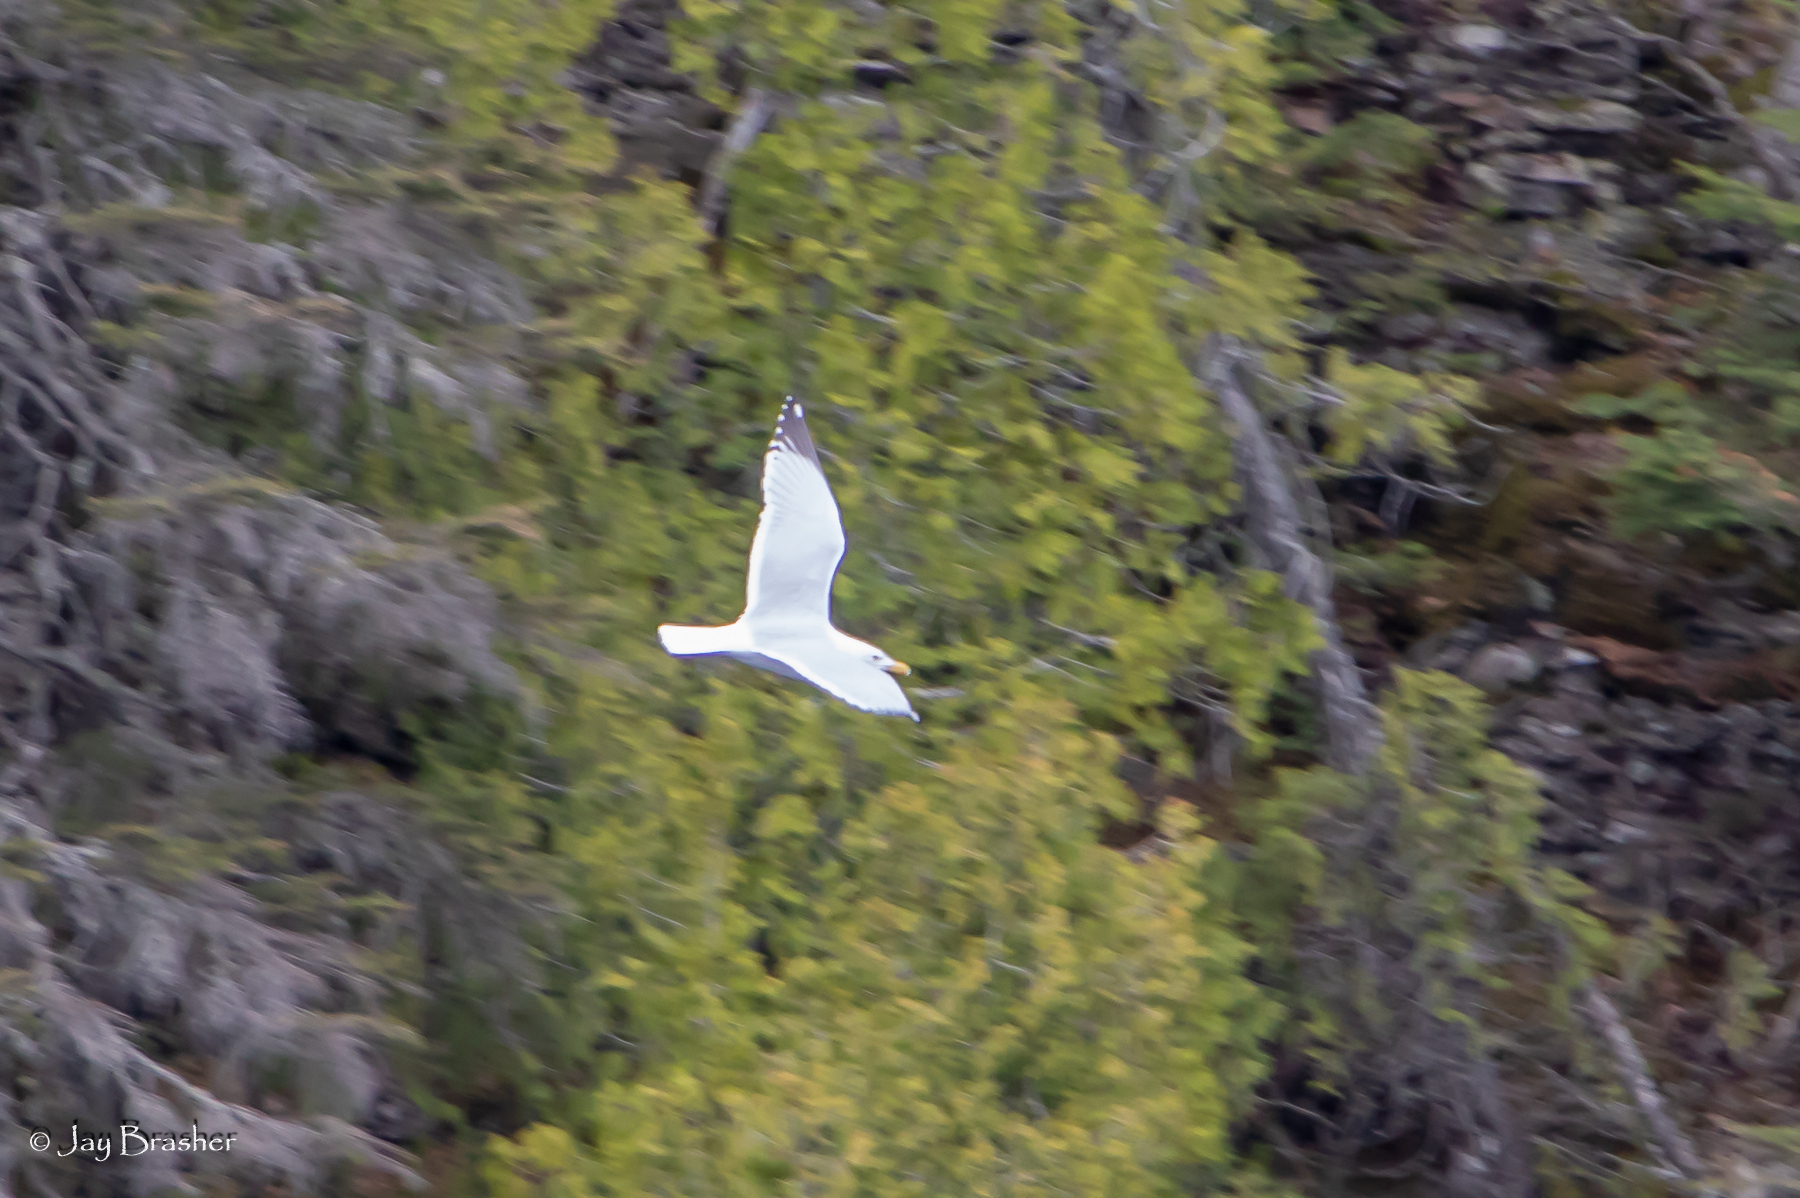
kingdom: Animalia
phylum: Chordata
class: Aves
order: Charadriiformes
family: Laridae
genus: Larus
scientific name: Larus argentatus
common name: Herring gull
